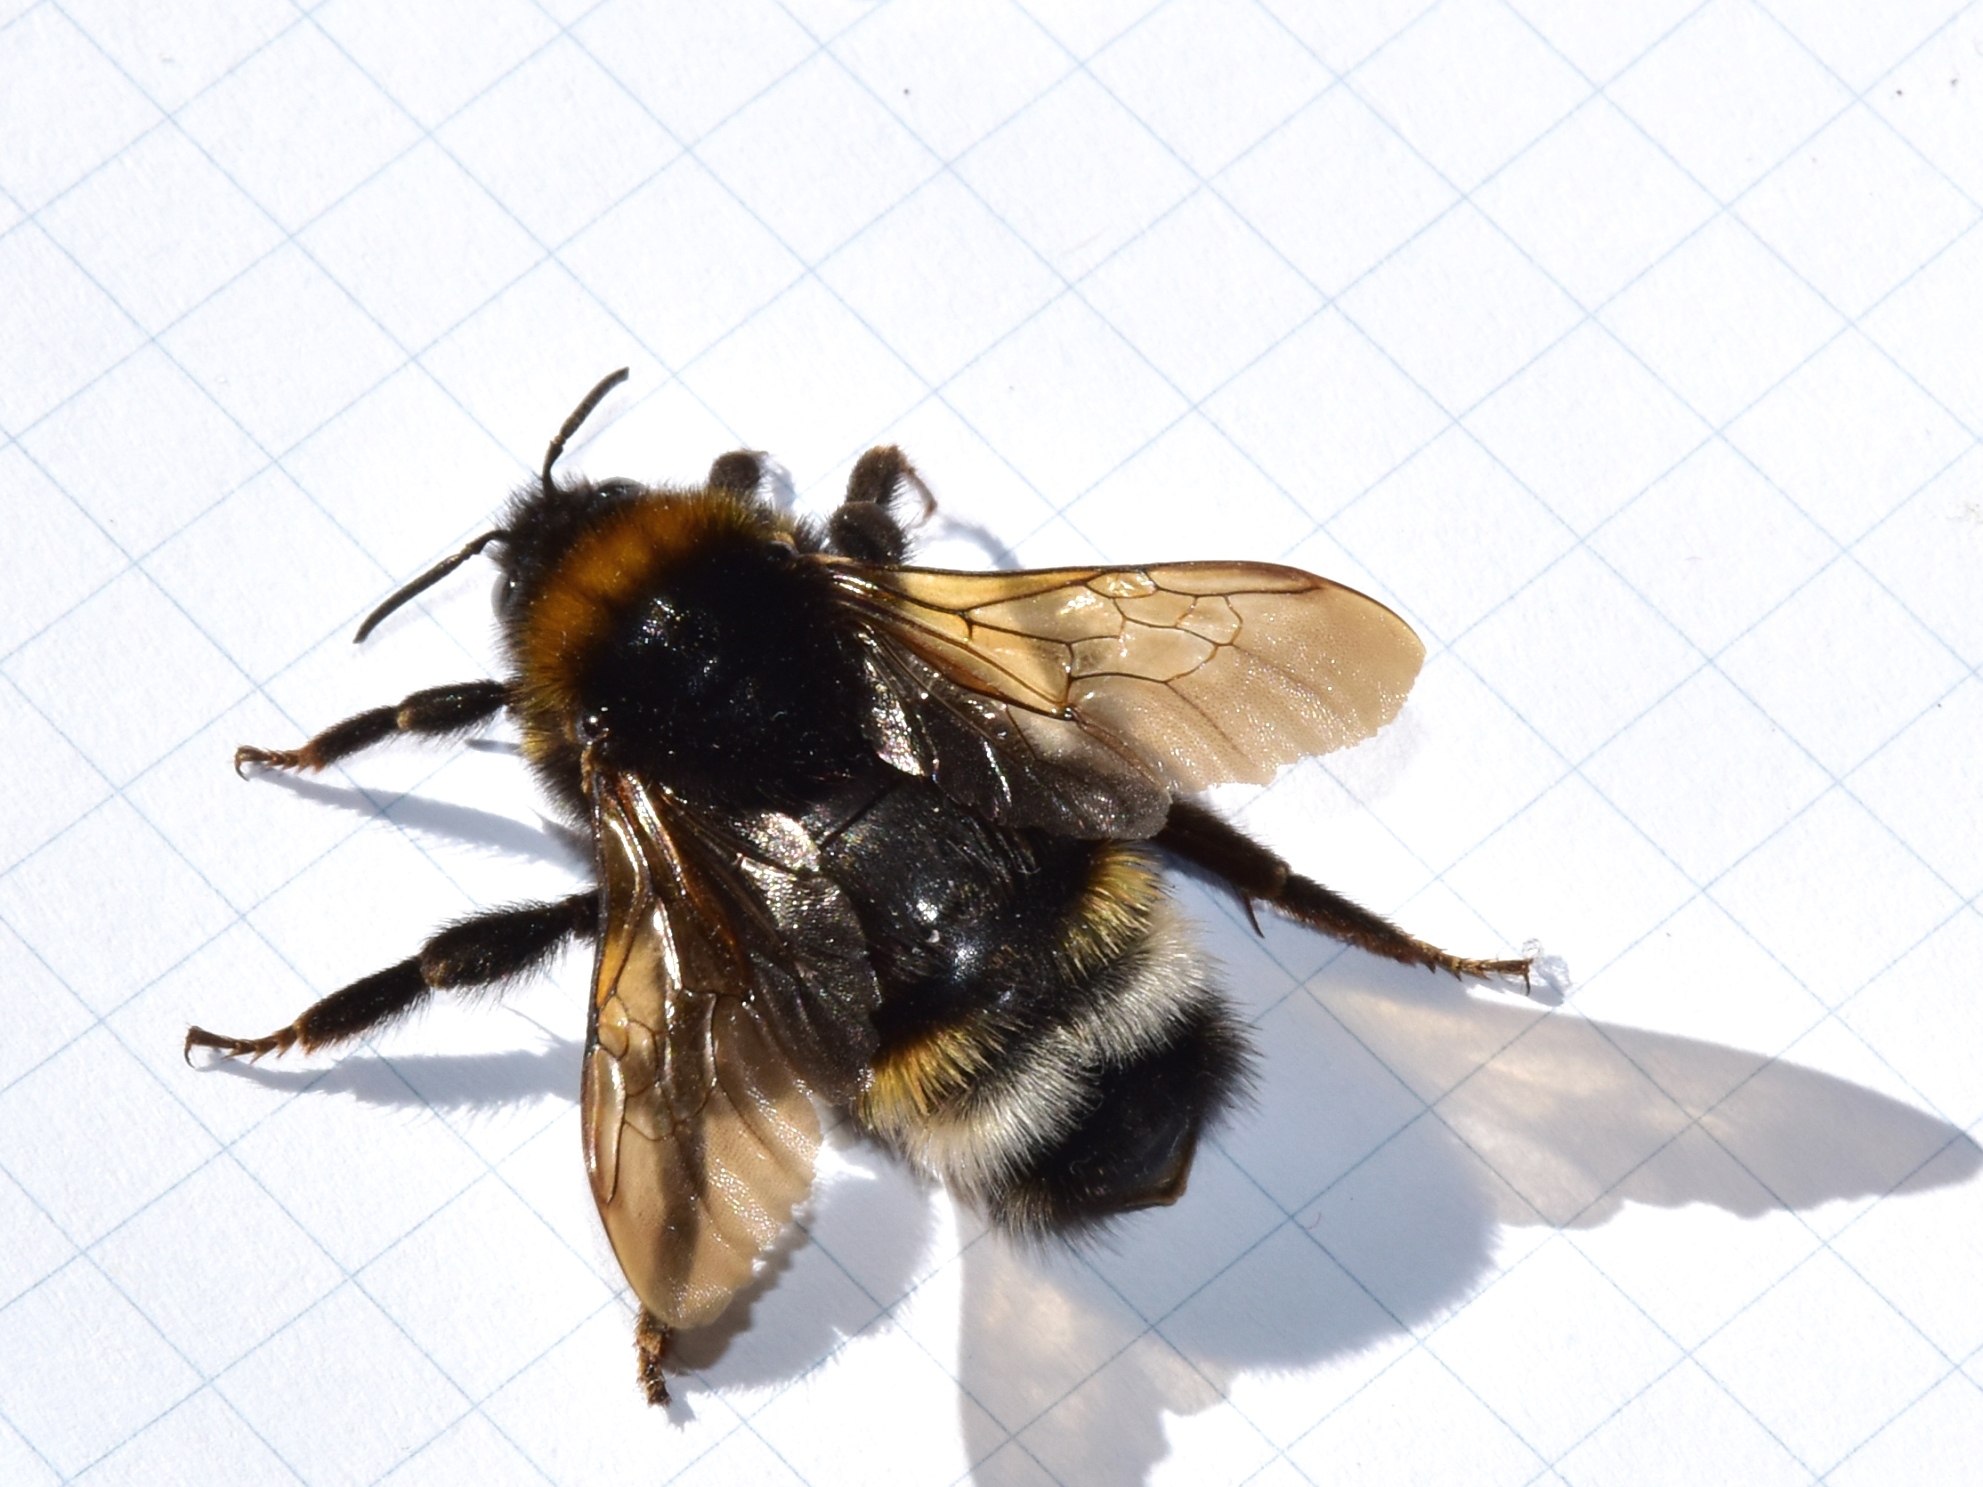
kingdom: Animalia
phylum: Arthropoda
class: Insecta
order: Hymenoptera
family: Apidae
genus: Bombus
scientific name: Bombus vestalis
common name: Vestal cuckoo bee
